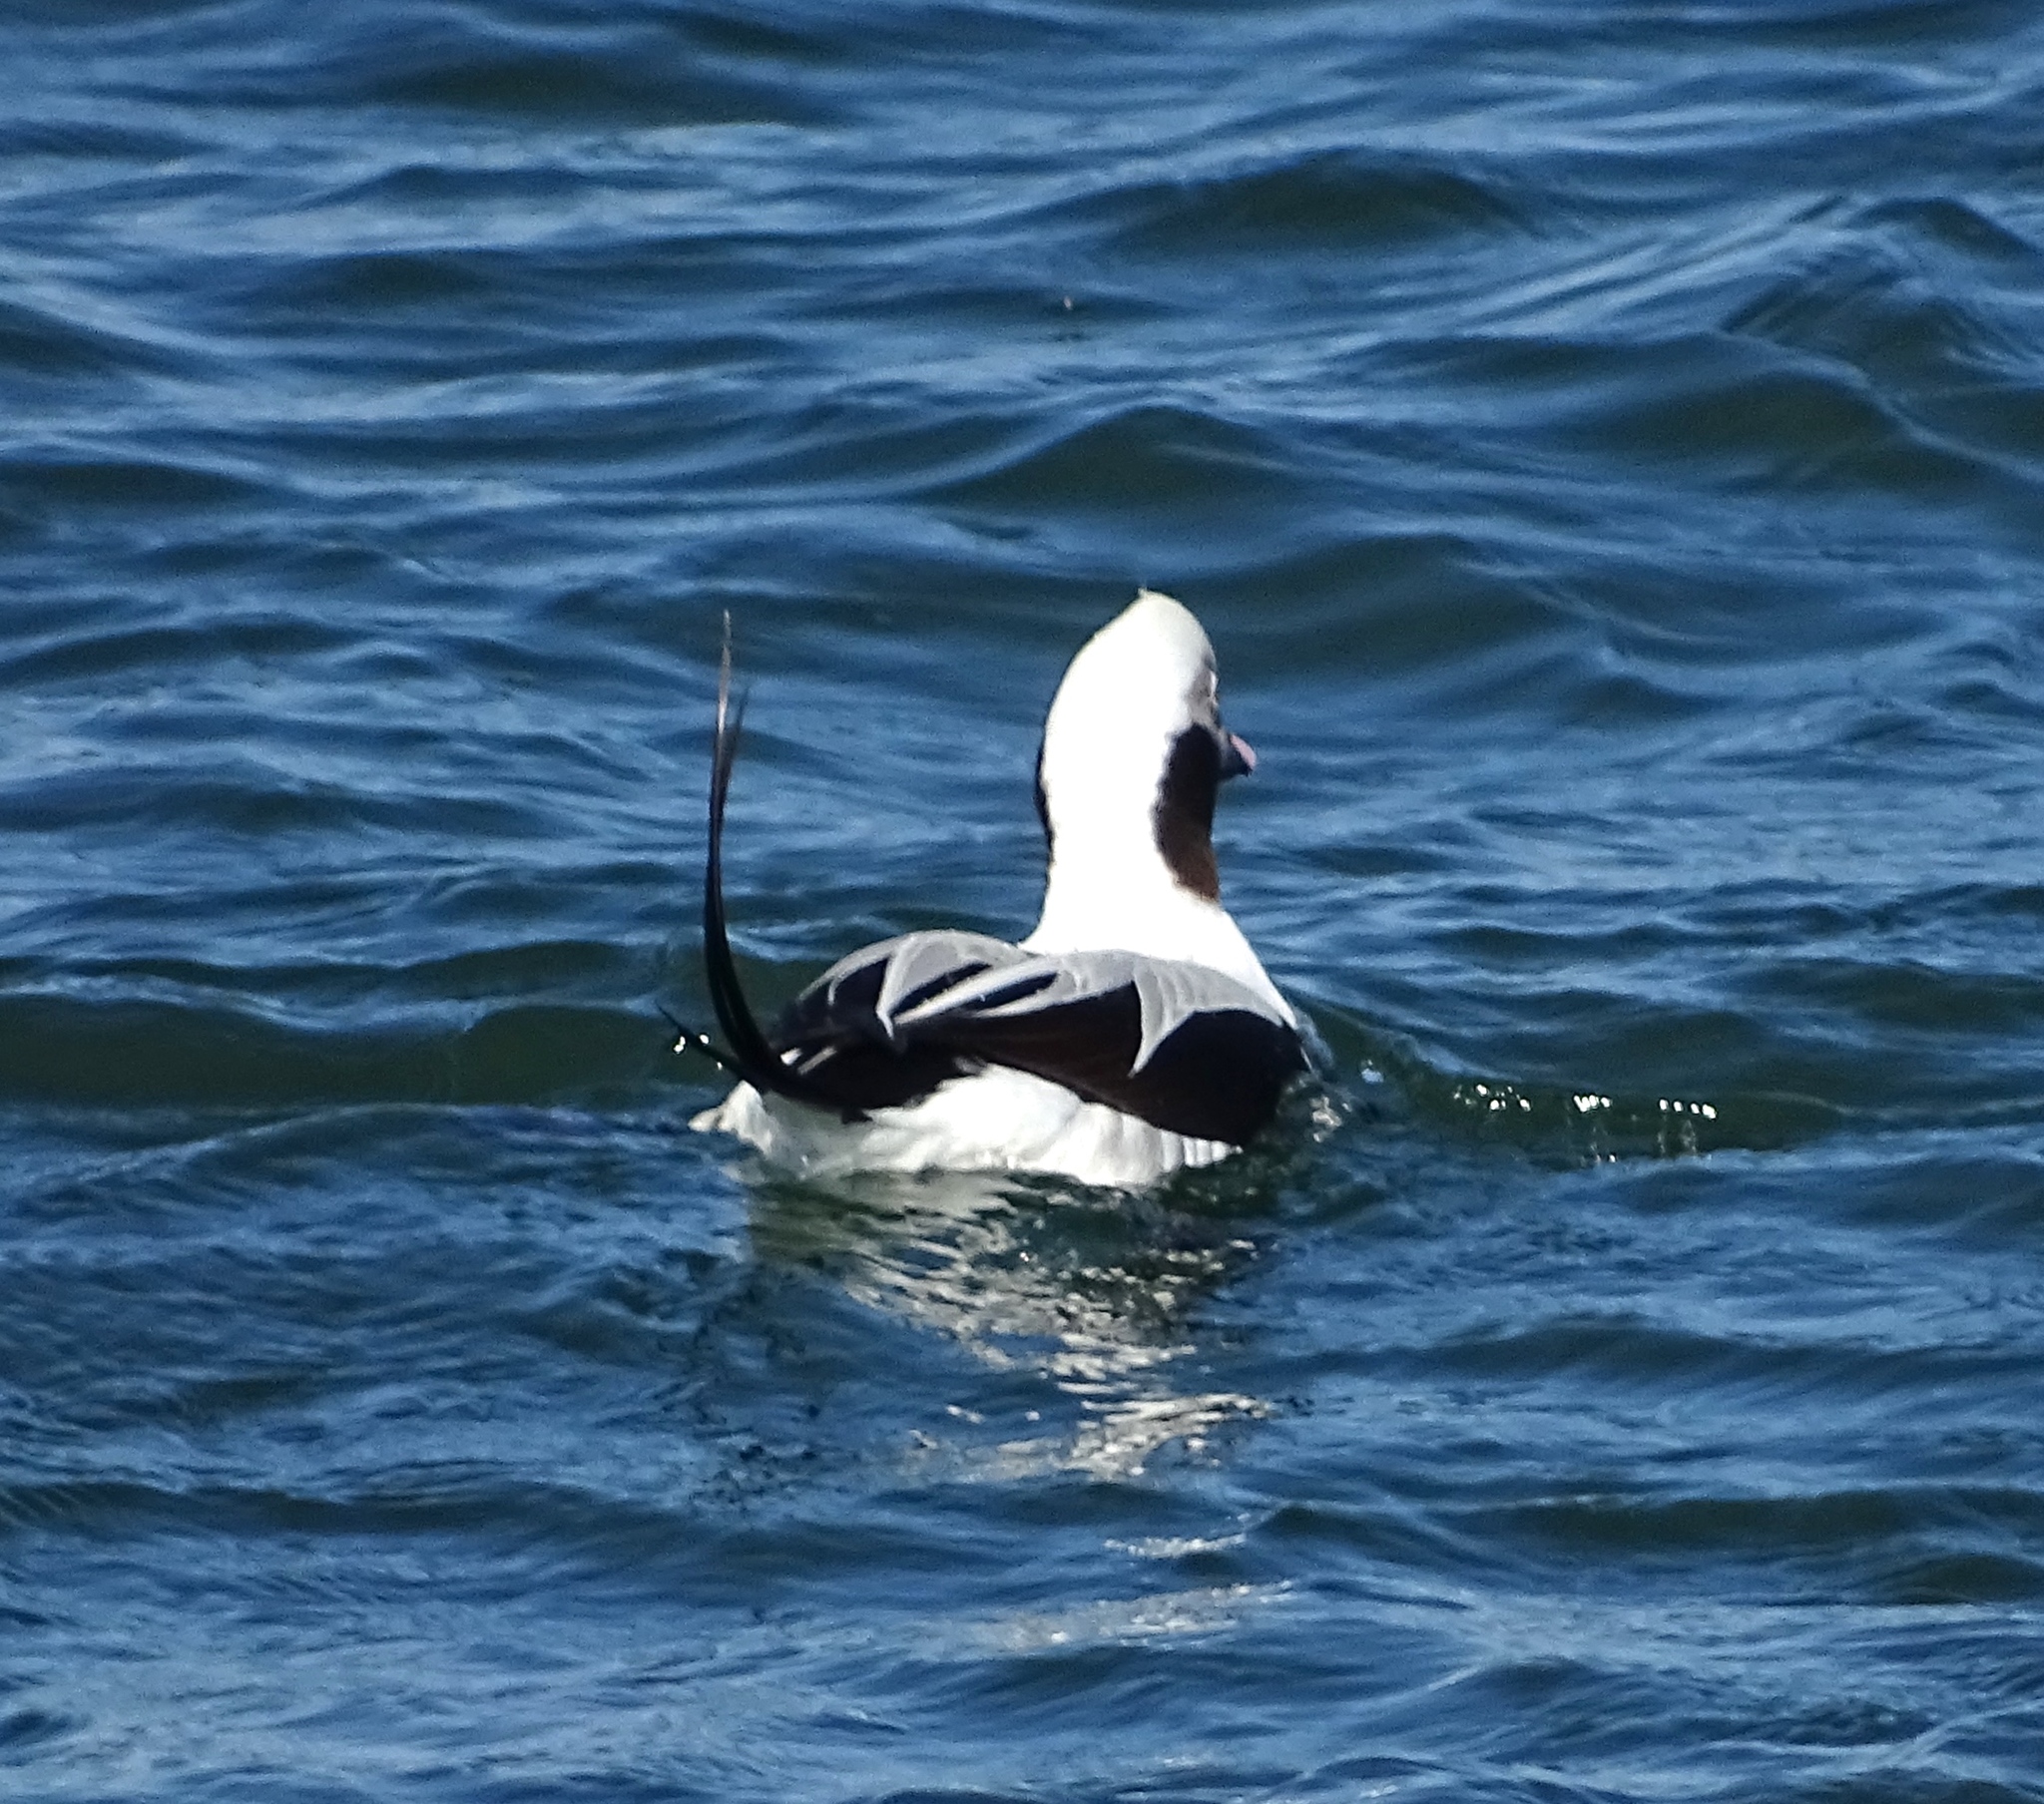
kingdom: Animalia
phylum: Chordata
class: Aves
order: Anseriformes
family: Anatidae
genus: Clangula
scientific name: Clangula hyemalis
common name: Long-tailed duck
